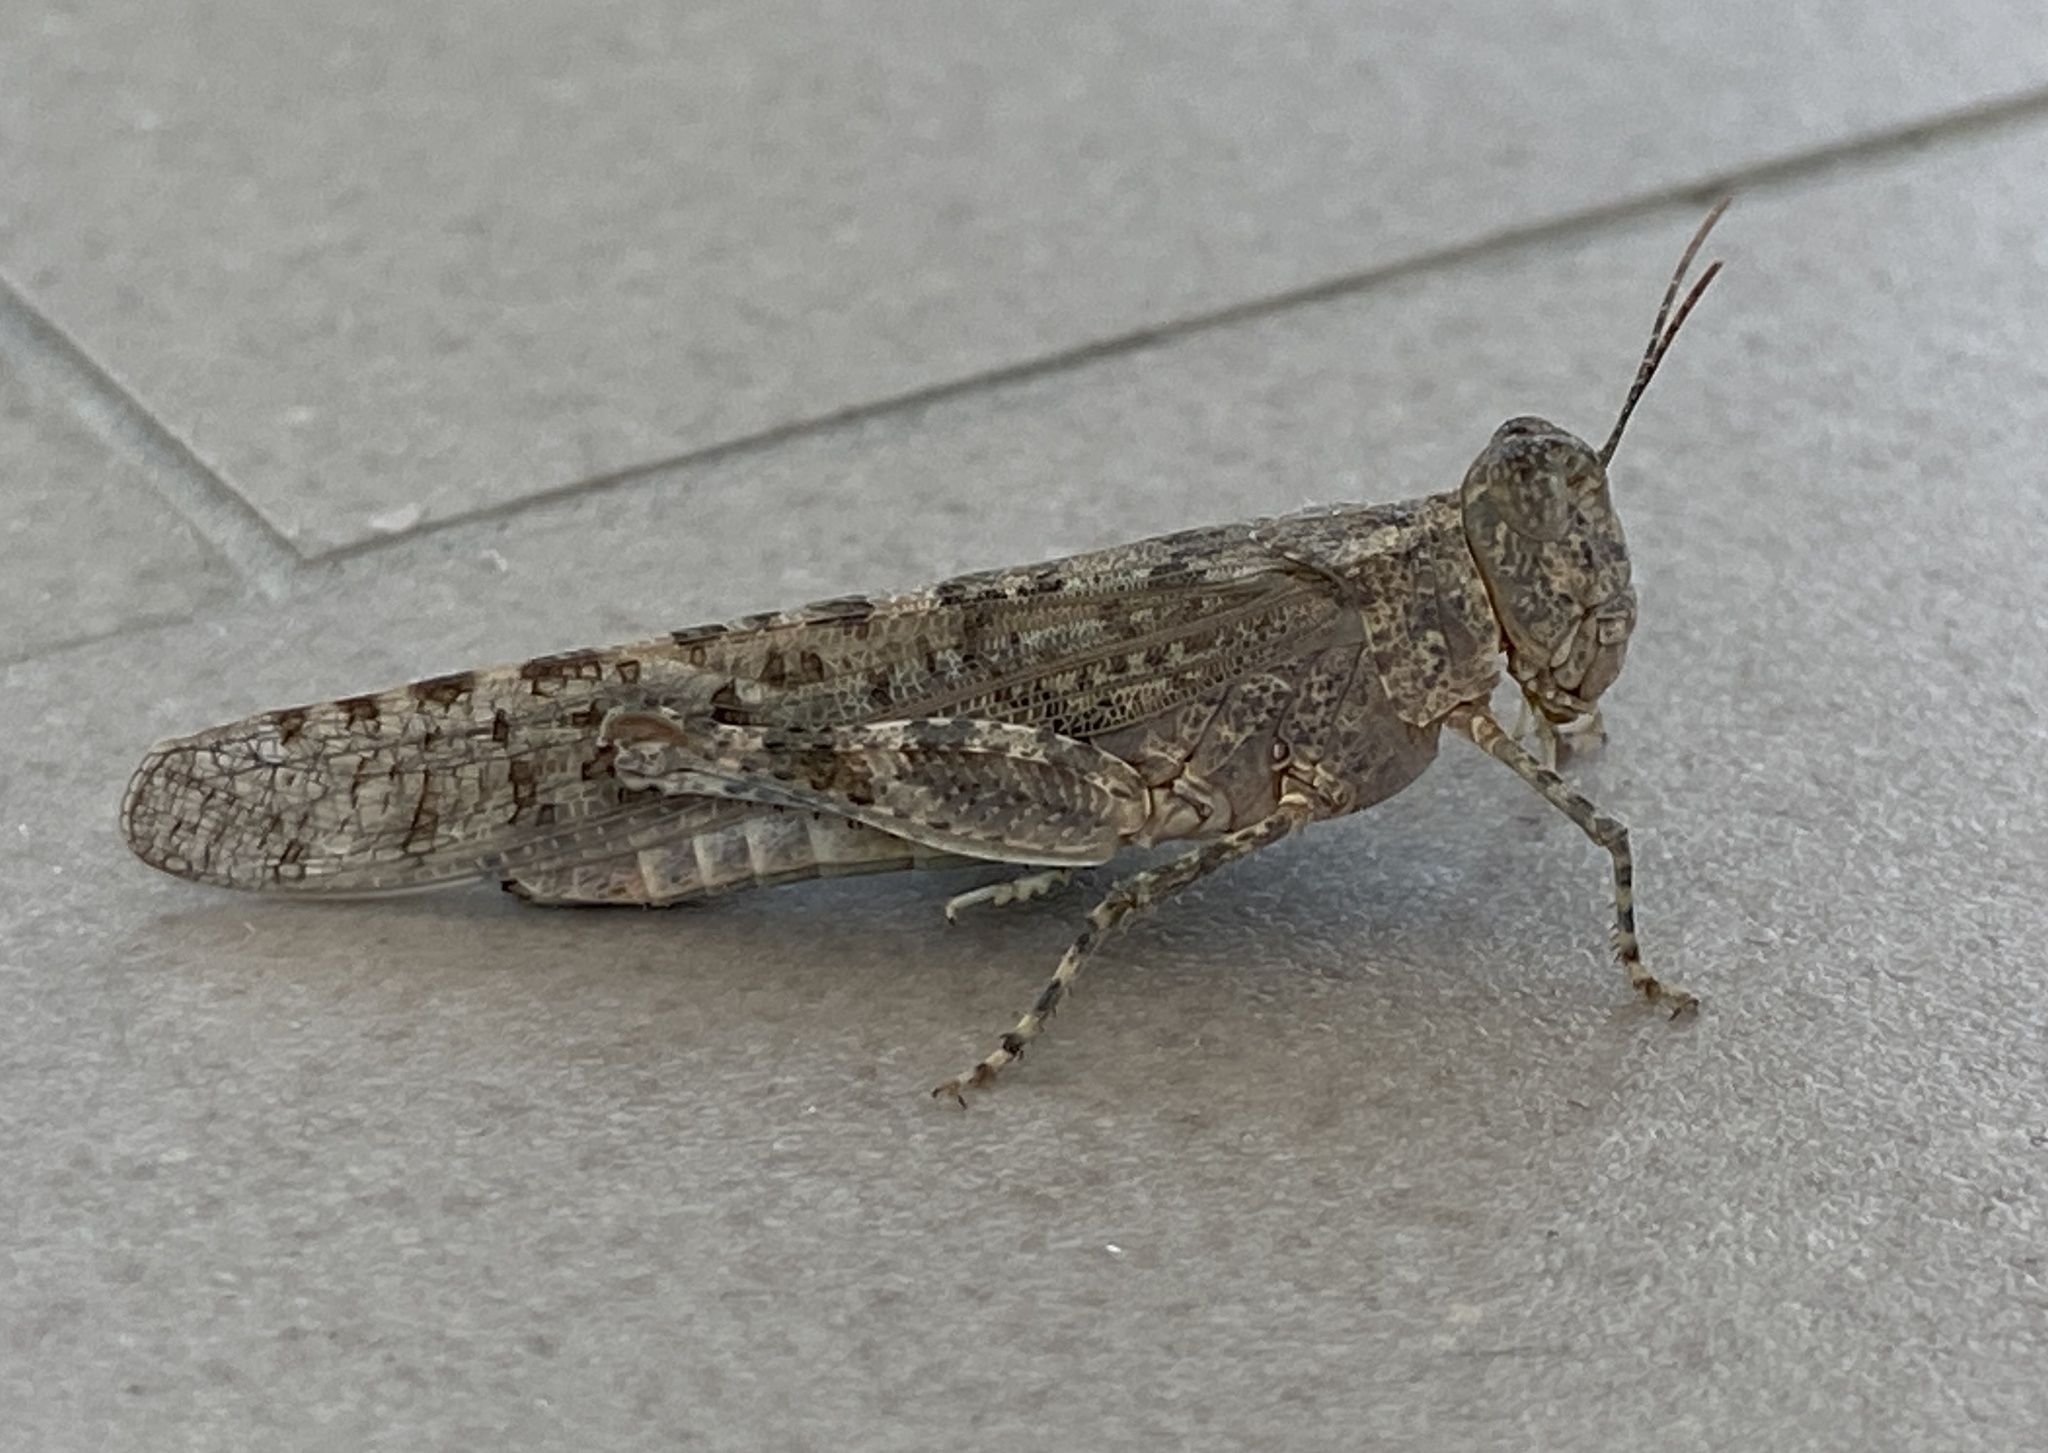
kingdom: Animalia
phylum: Arthropoda
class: Insecta
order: Orthoptera
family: Acrididae
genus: Sphingonotus
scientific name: Sphingonotus rubescens
